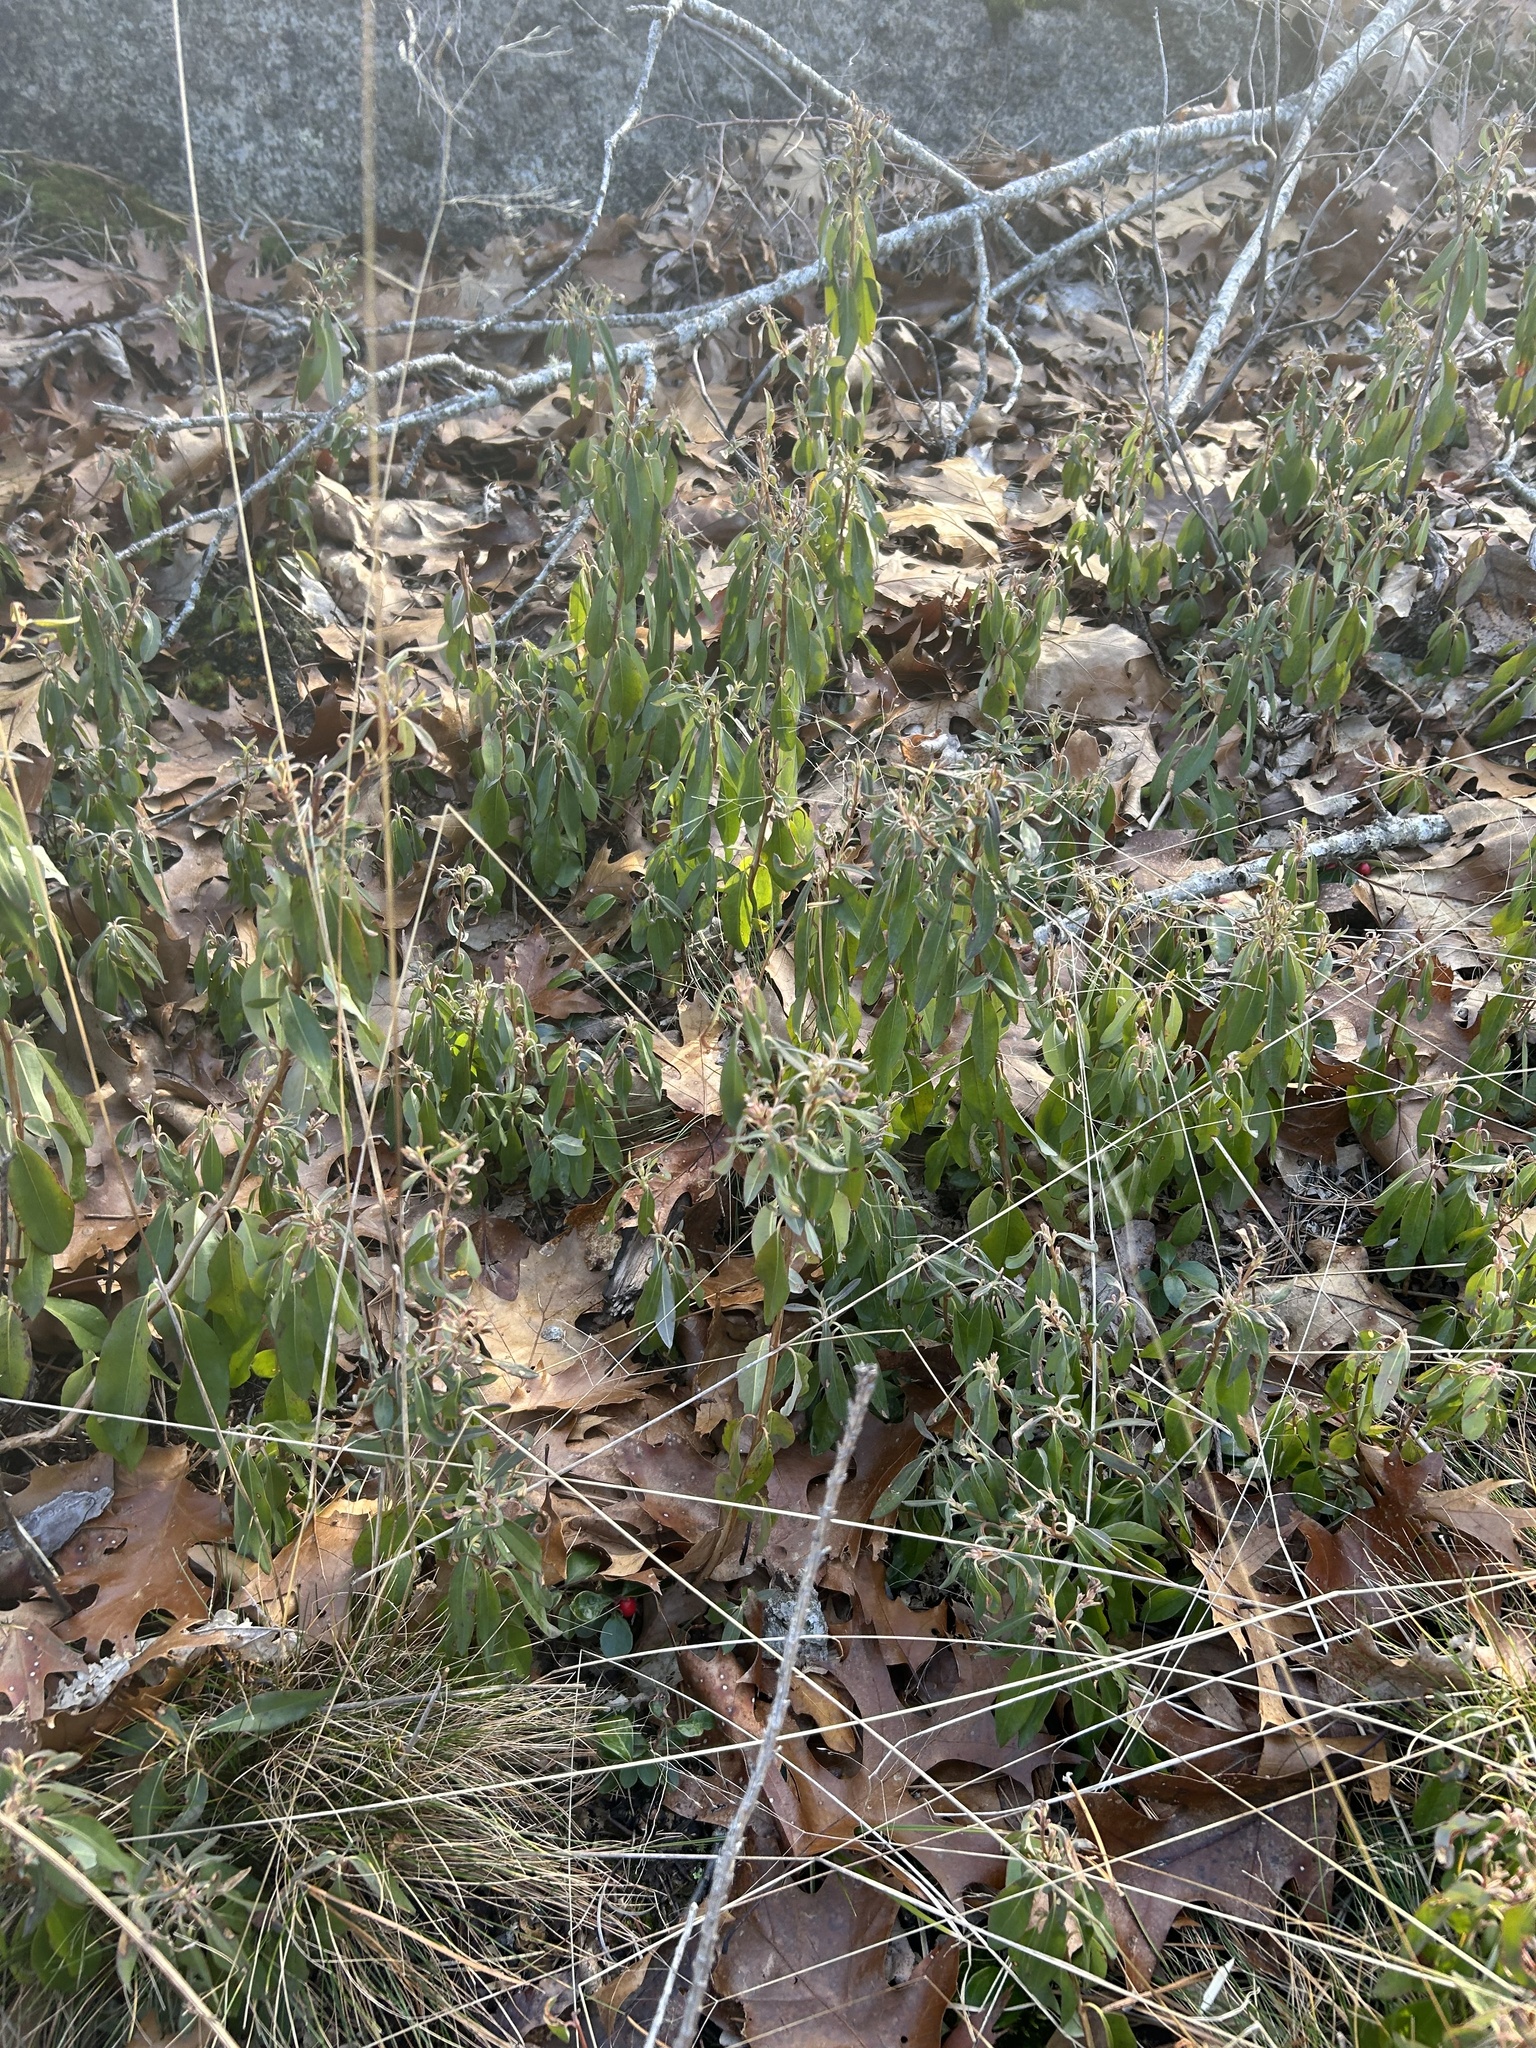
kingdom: Plantae
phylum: Tracheophyta
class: Magnoliopsida
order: Ericales
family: Ericaceae
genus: Kalmia
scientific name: Kalmia angustifolia
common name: Sheep-laurel
